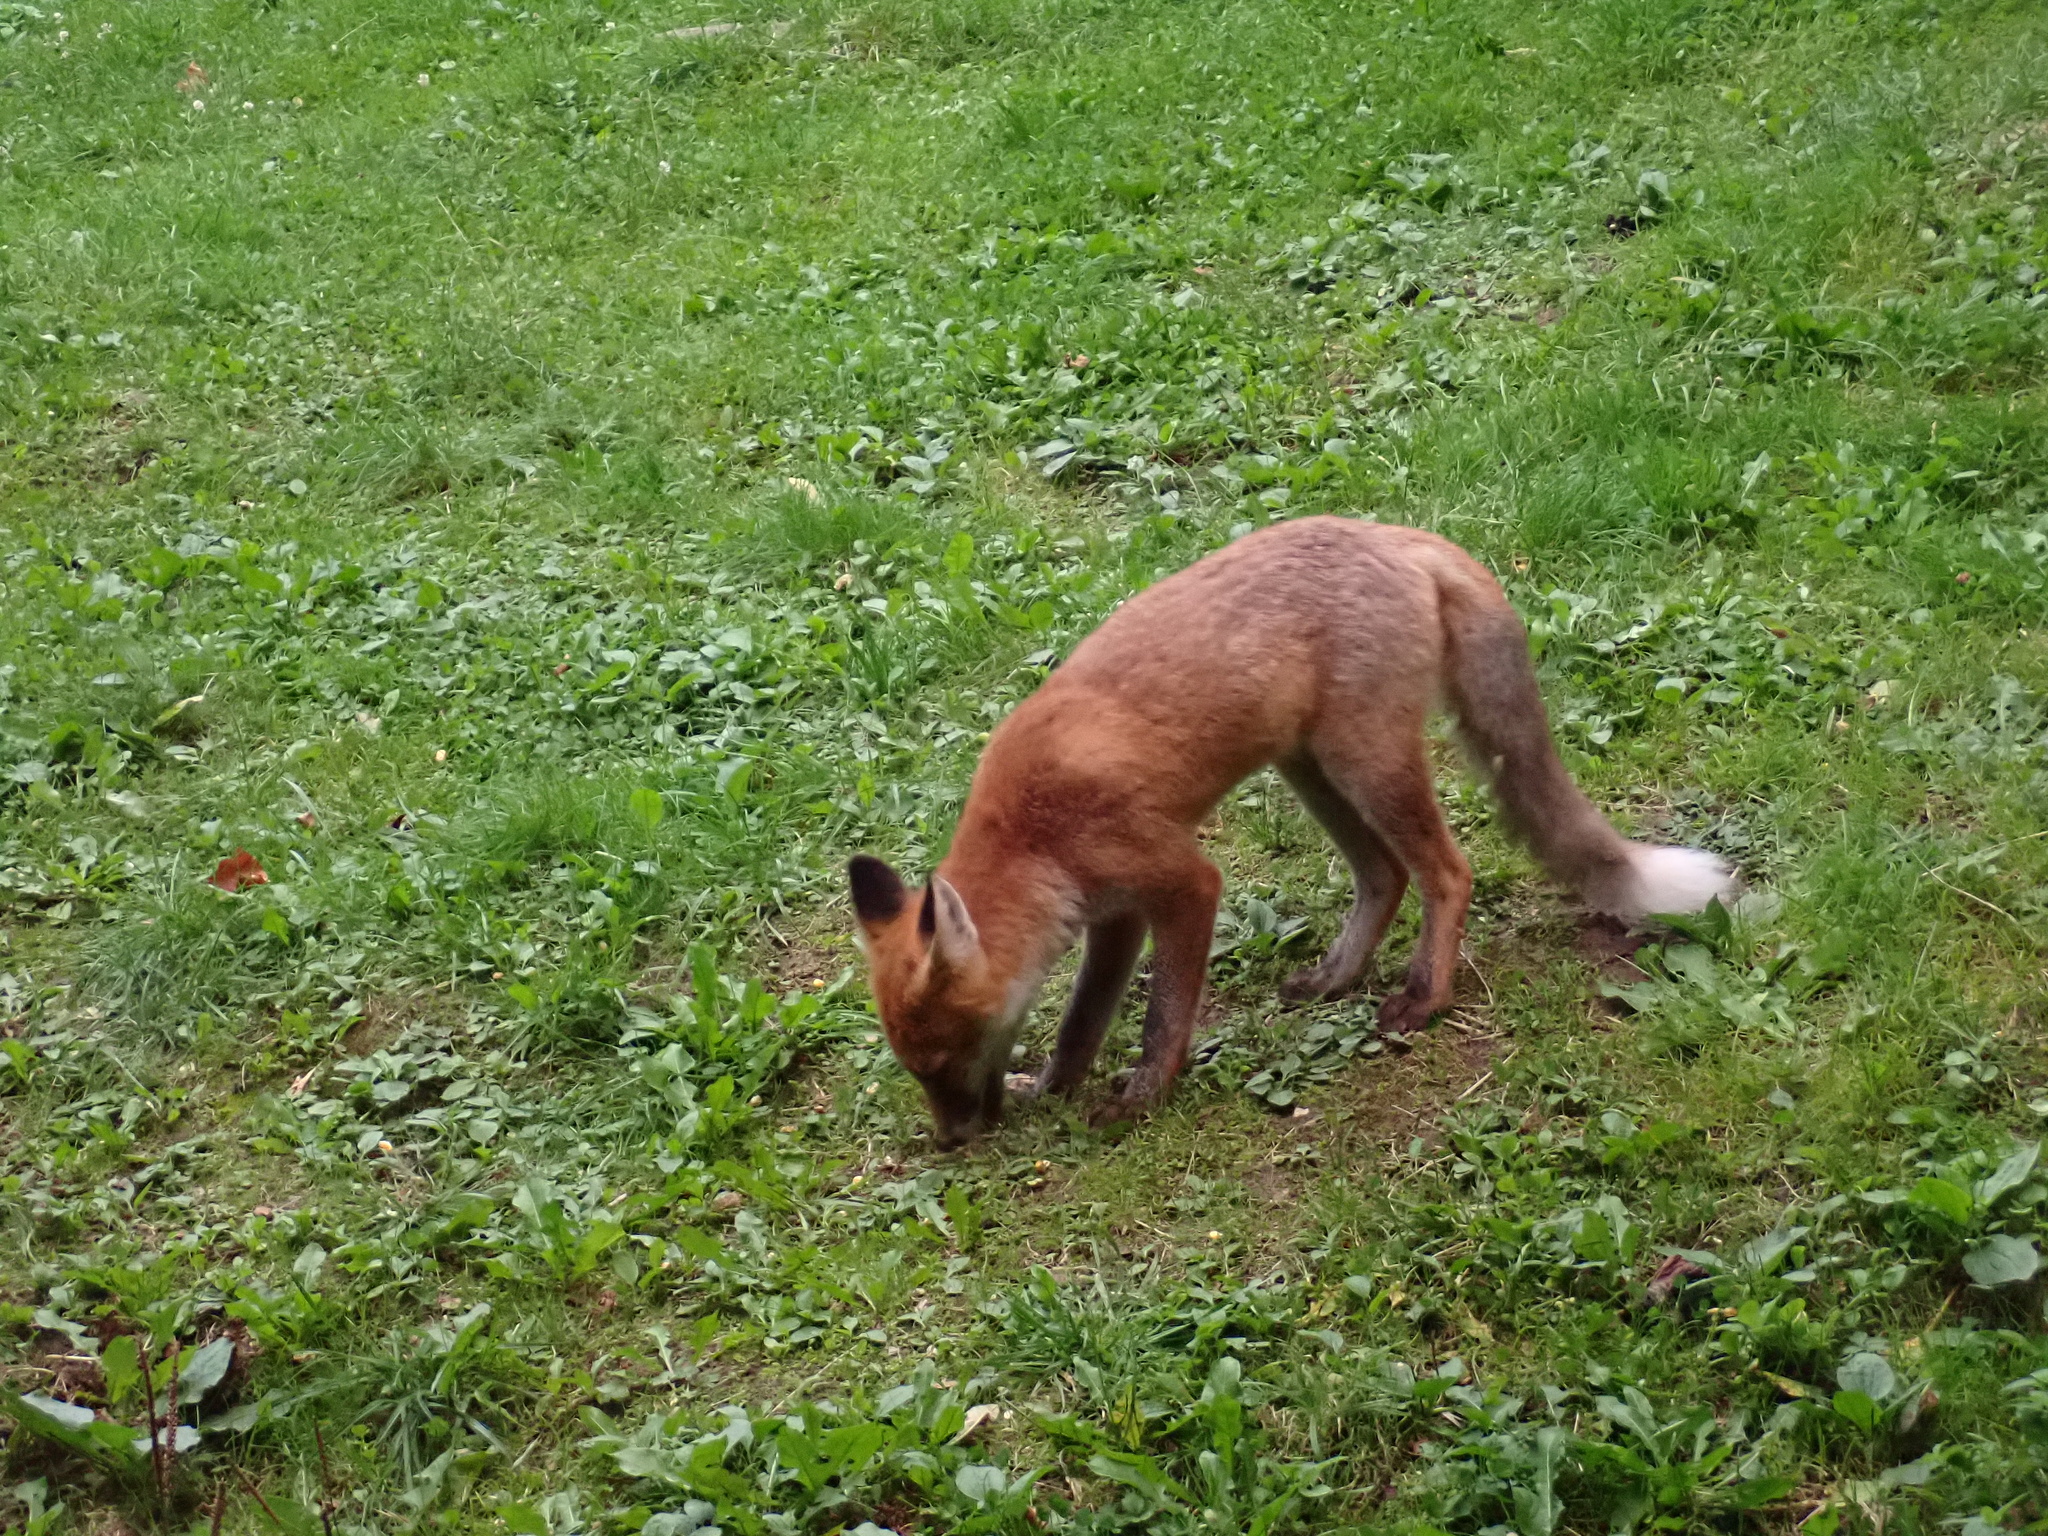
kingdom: Animalia
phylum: Chordata
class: Mammalia
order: Carnivora
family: Canidae
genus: Vulpes
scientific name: Vulpes vulpes
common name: Red fox
